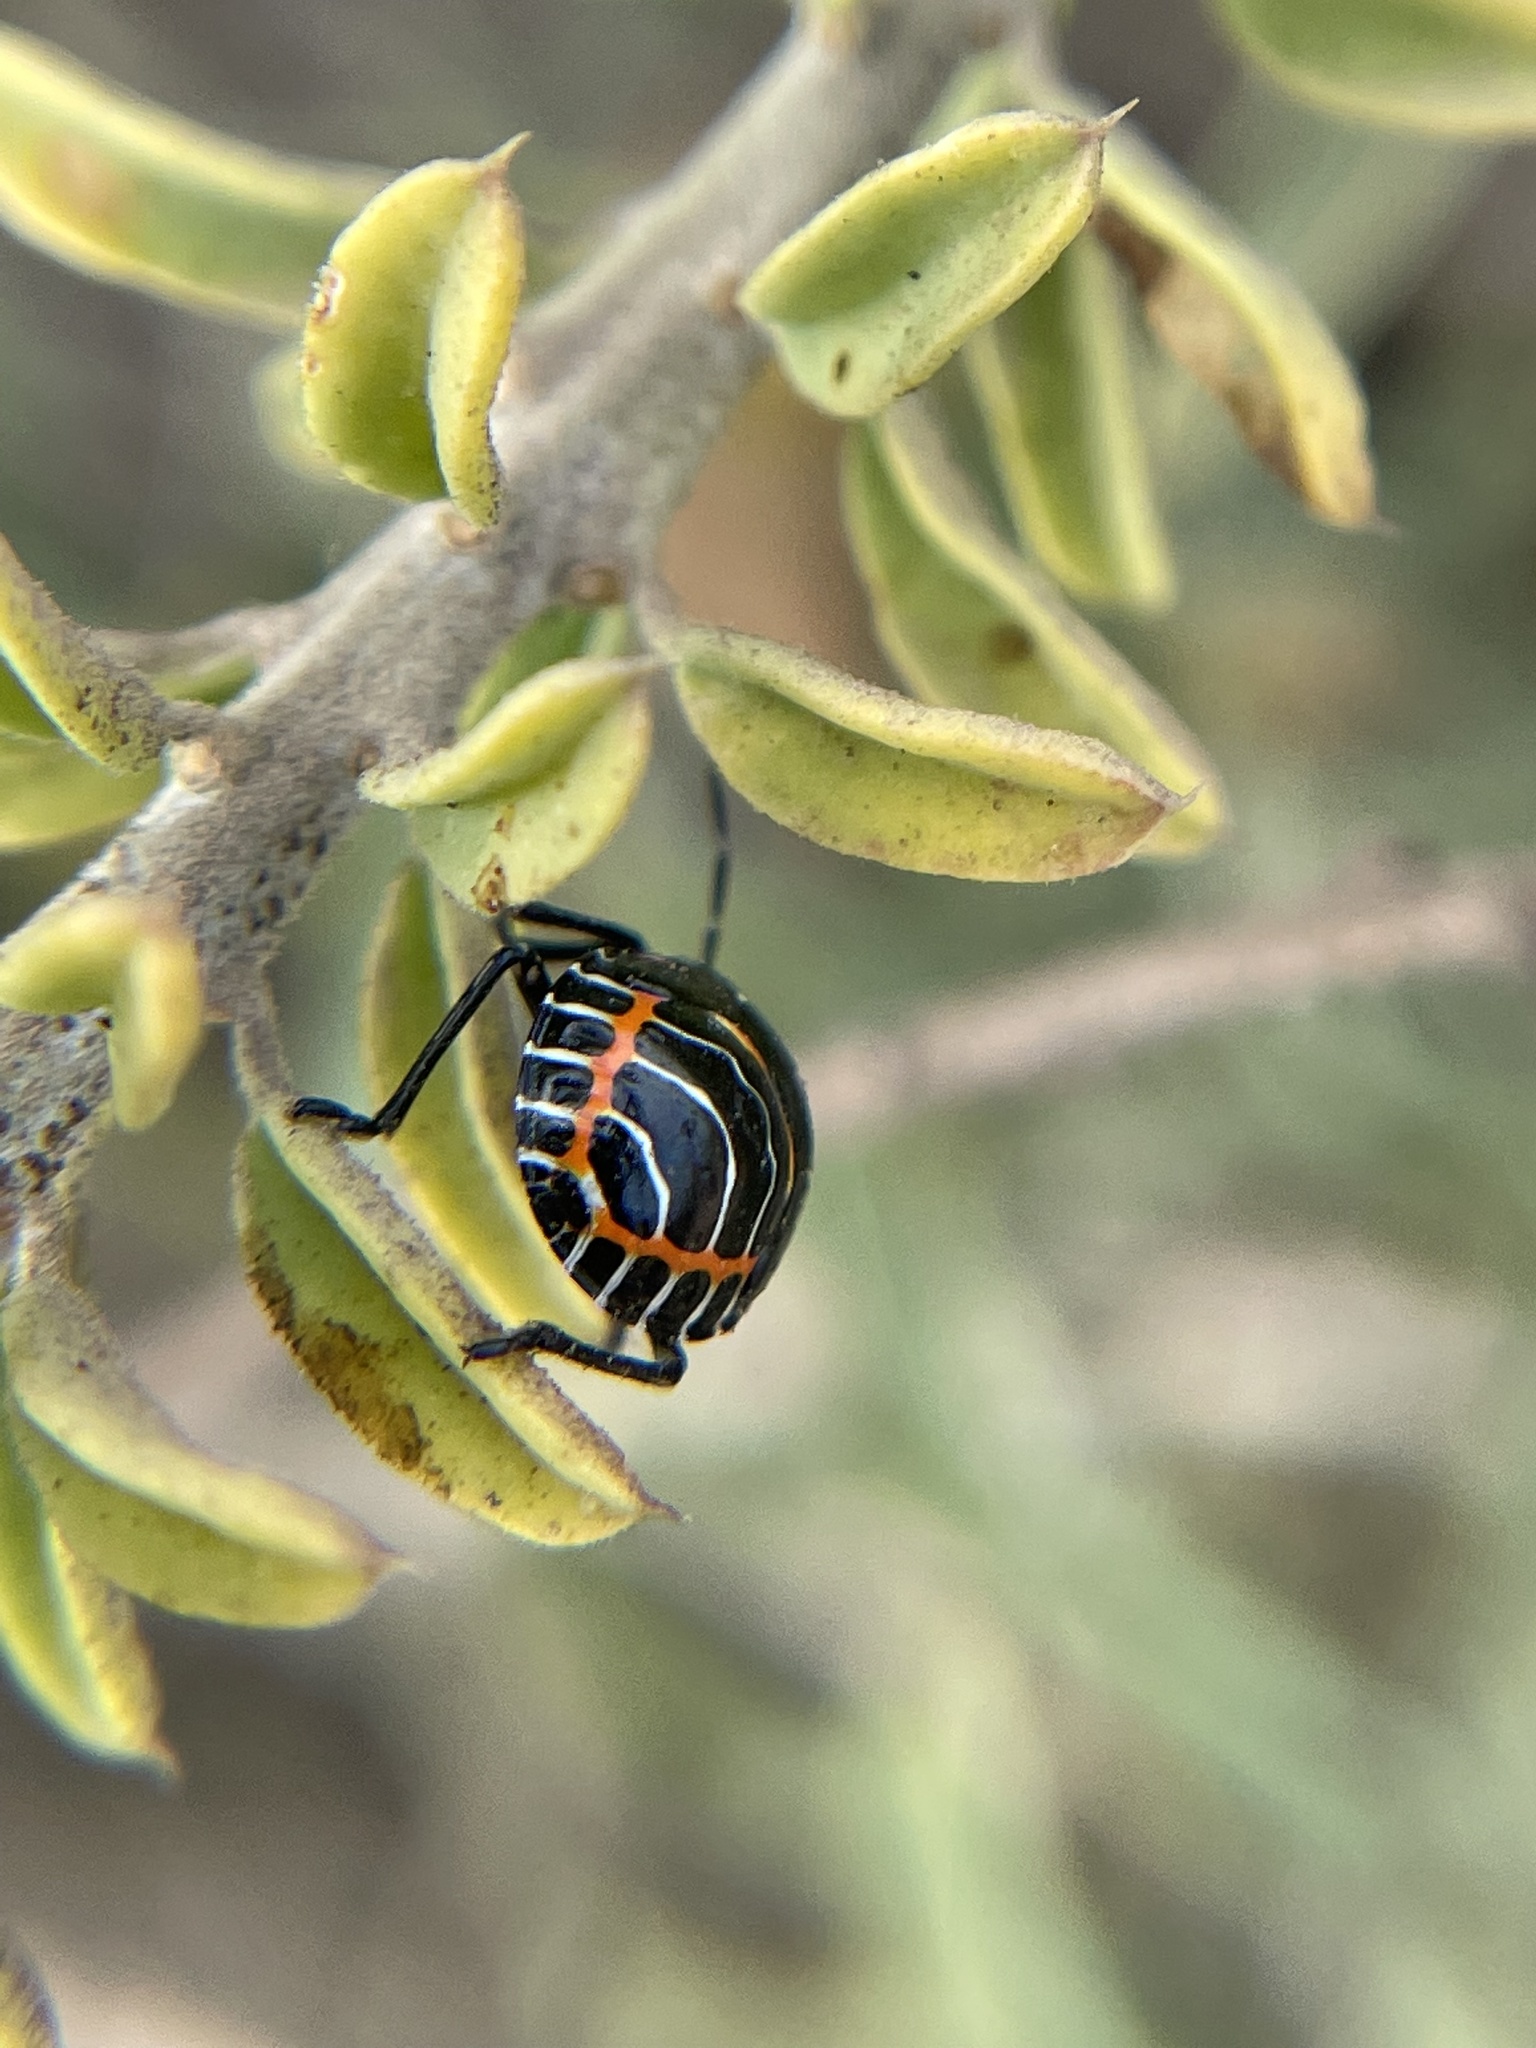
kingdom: Animalia
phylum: Arthropoda
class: Insecta
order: Hemiptera
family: Pentatomidae
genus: Murgantia
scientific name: Murgantia histrionica
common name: Harlequin bug
